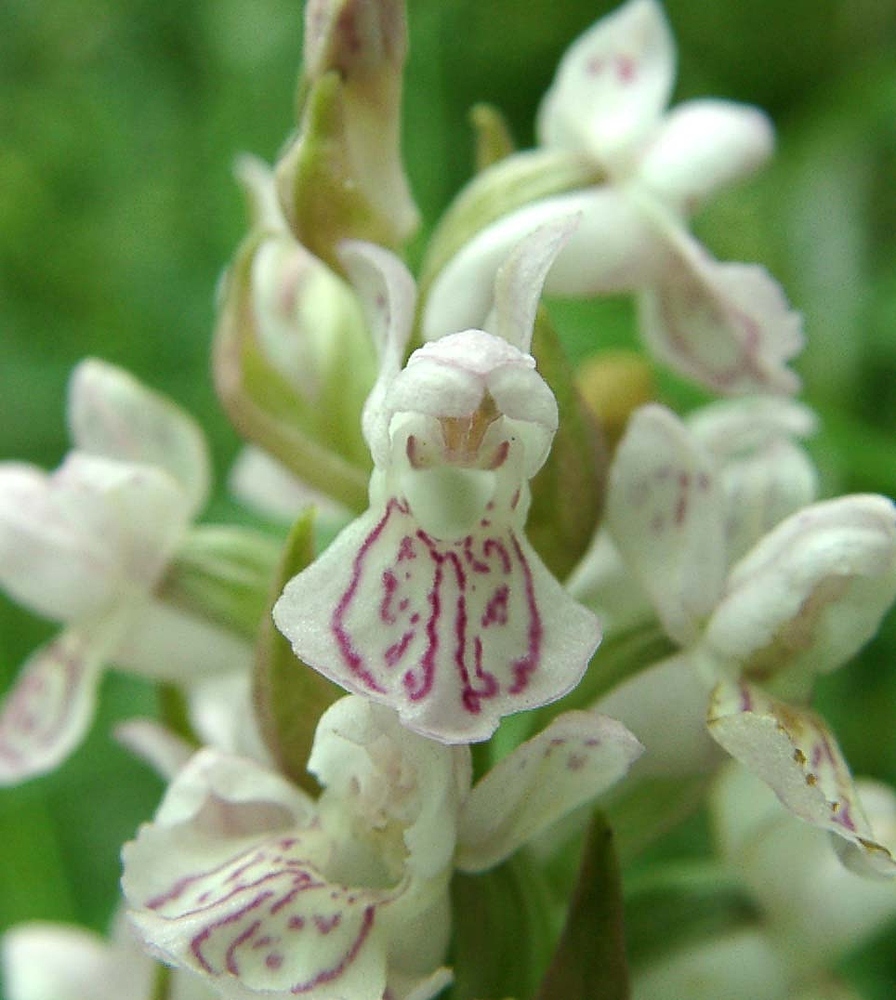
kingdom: Plantae
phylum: Tracheophyta
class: Liliopsida
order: Asparagales
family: Orchidaceae
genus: Dactylorhiza
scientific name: Dactylorhiza incarnata
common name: Early marsh-orchid
